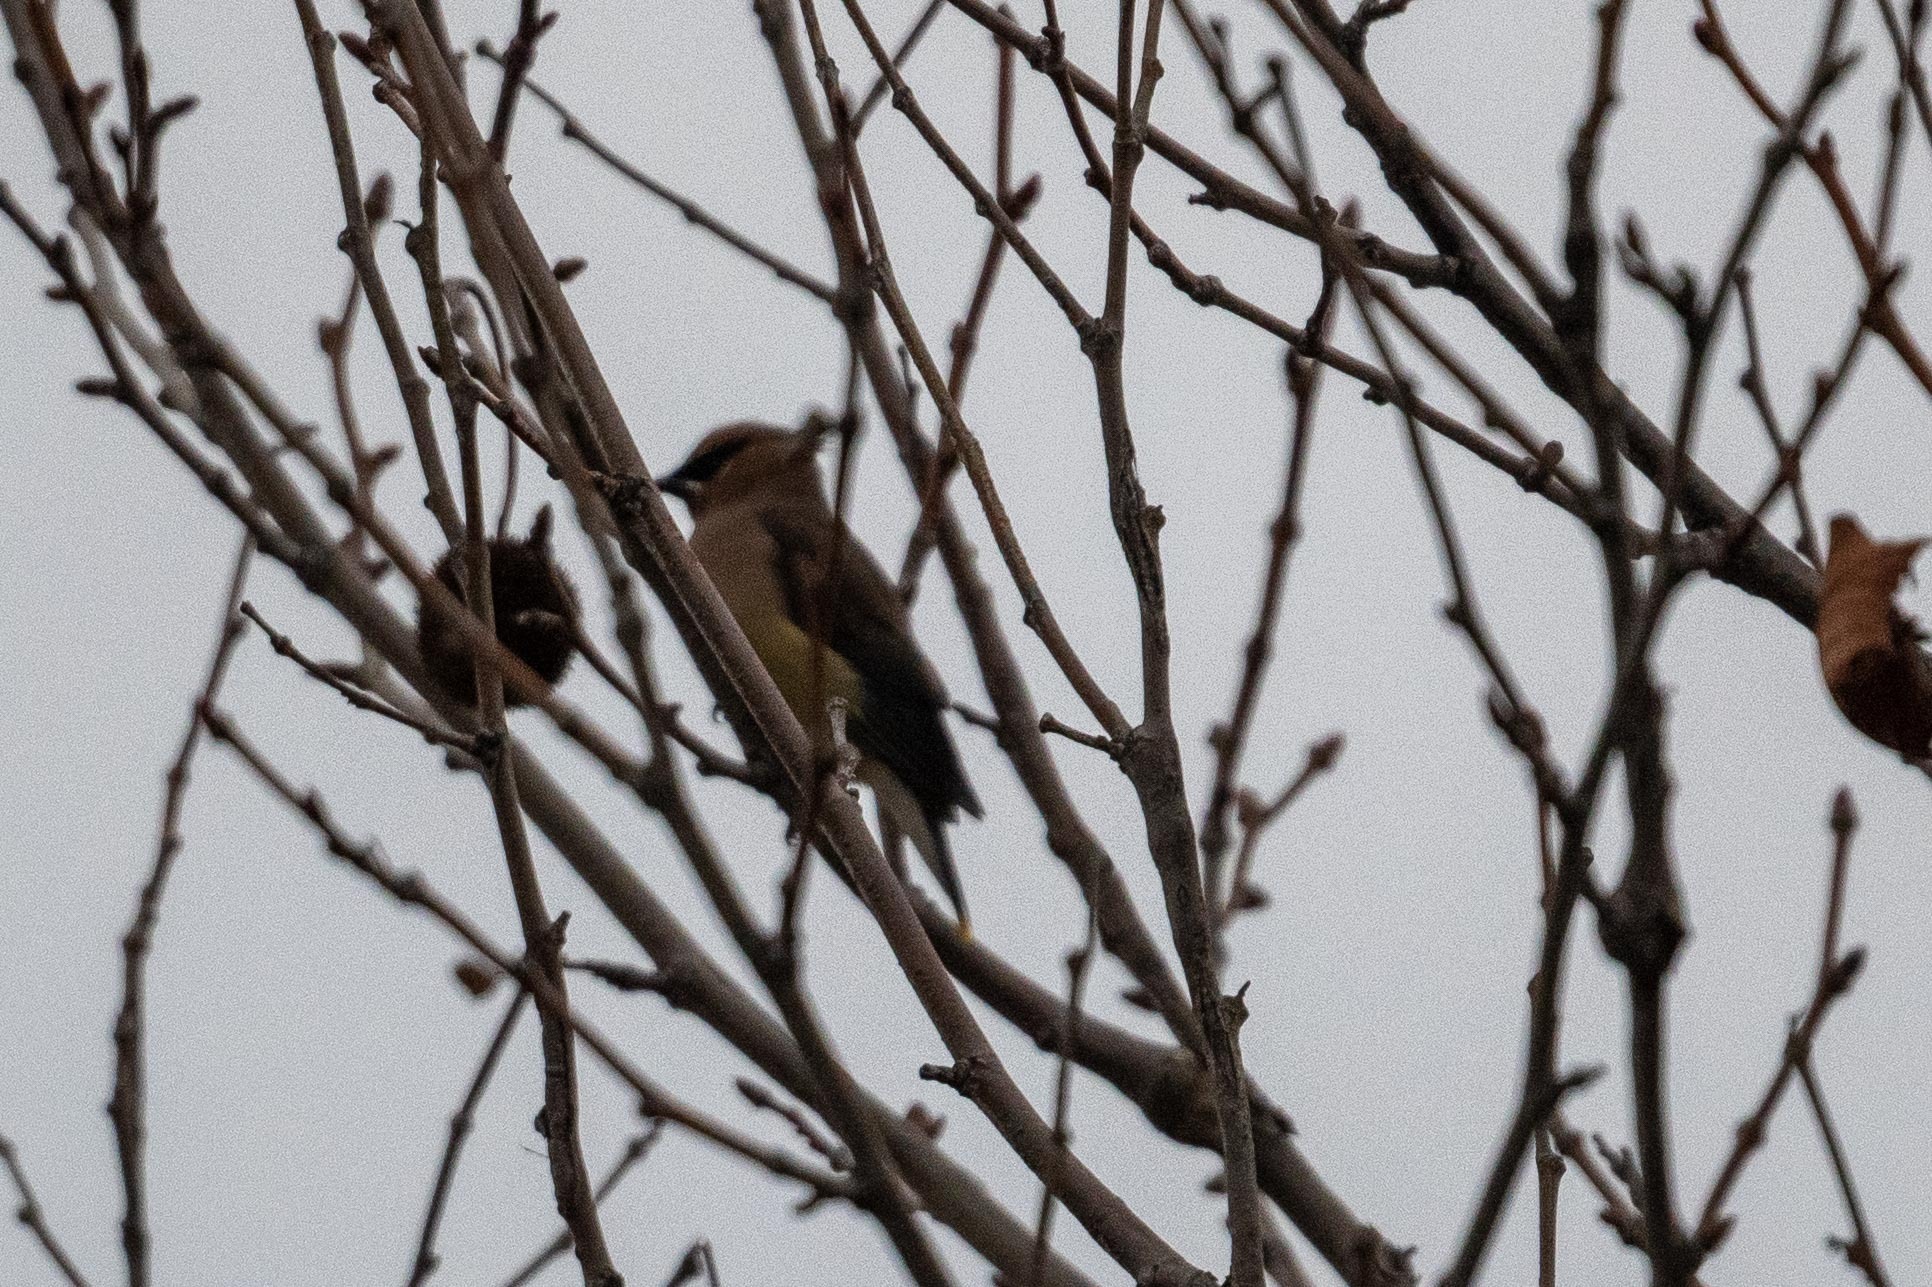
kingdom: Animalia
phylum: Chordata
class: Aves
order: Passeriformes
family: Bombycillidae
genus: Bombycilla
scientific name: Bombycilla cedrorum
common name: Cedar waxwing
